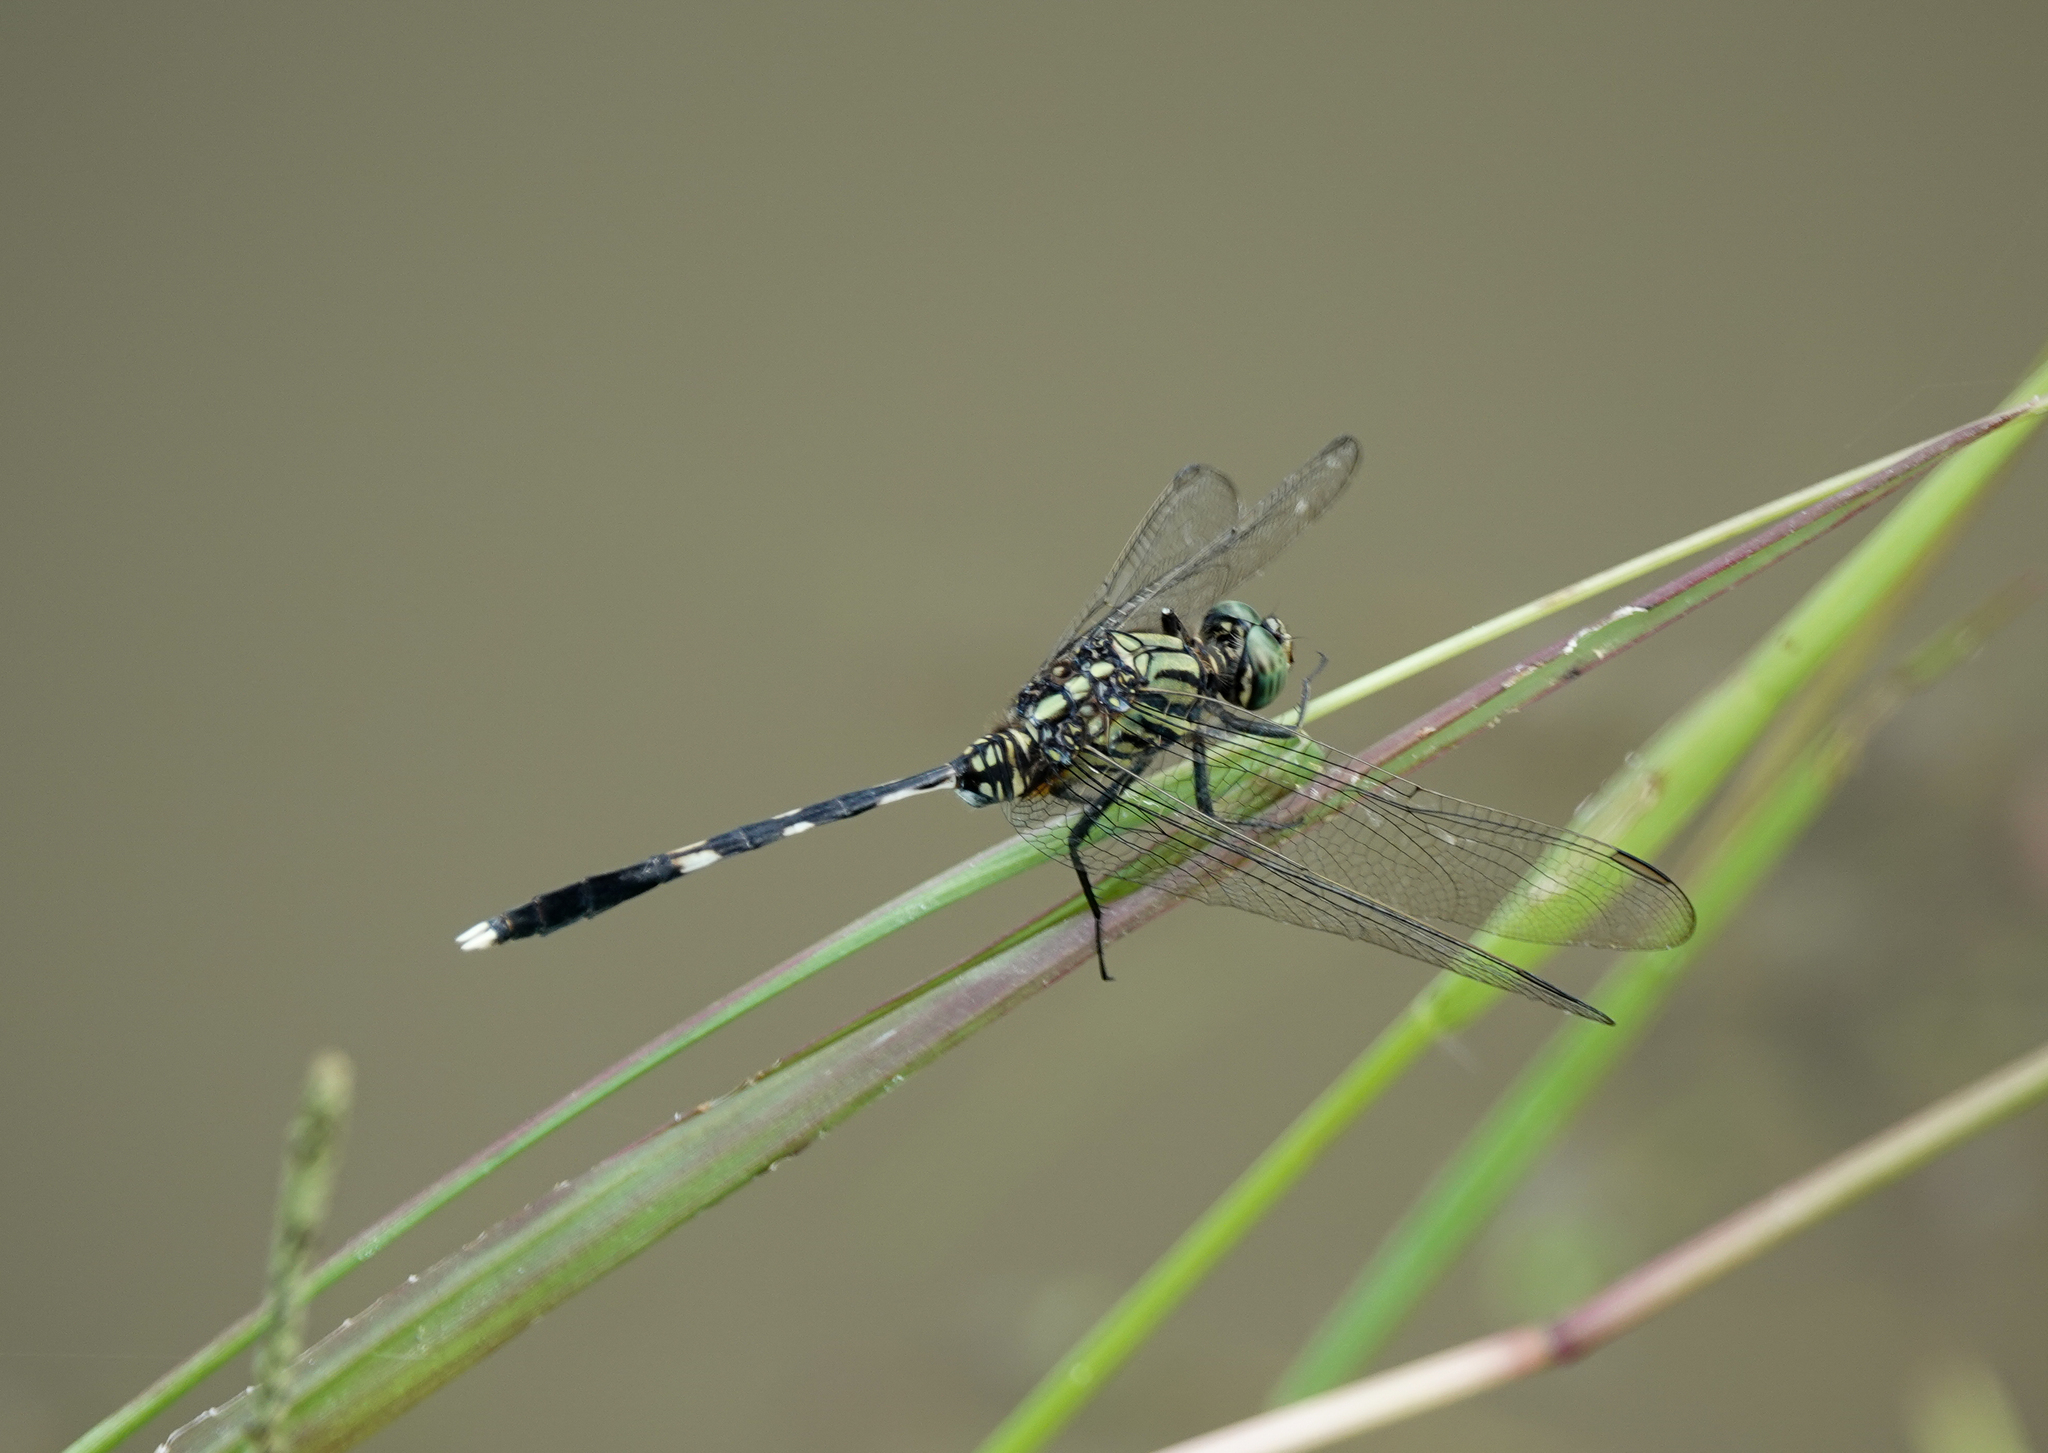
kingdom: Animalia
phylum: Arthropoda
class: Insecta
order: Odonata
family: Libellulidae
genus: Orthetrum
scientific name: Orthetrum sabina
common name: Slender skimmer
